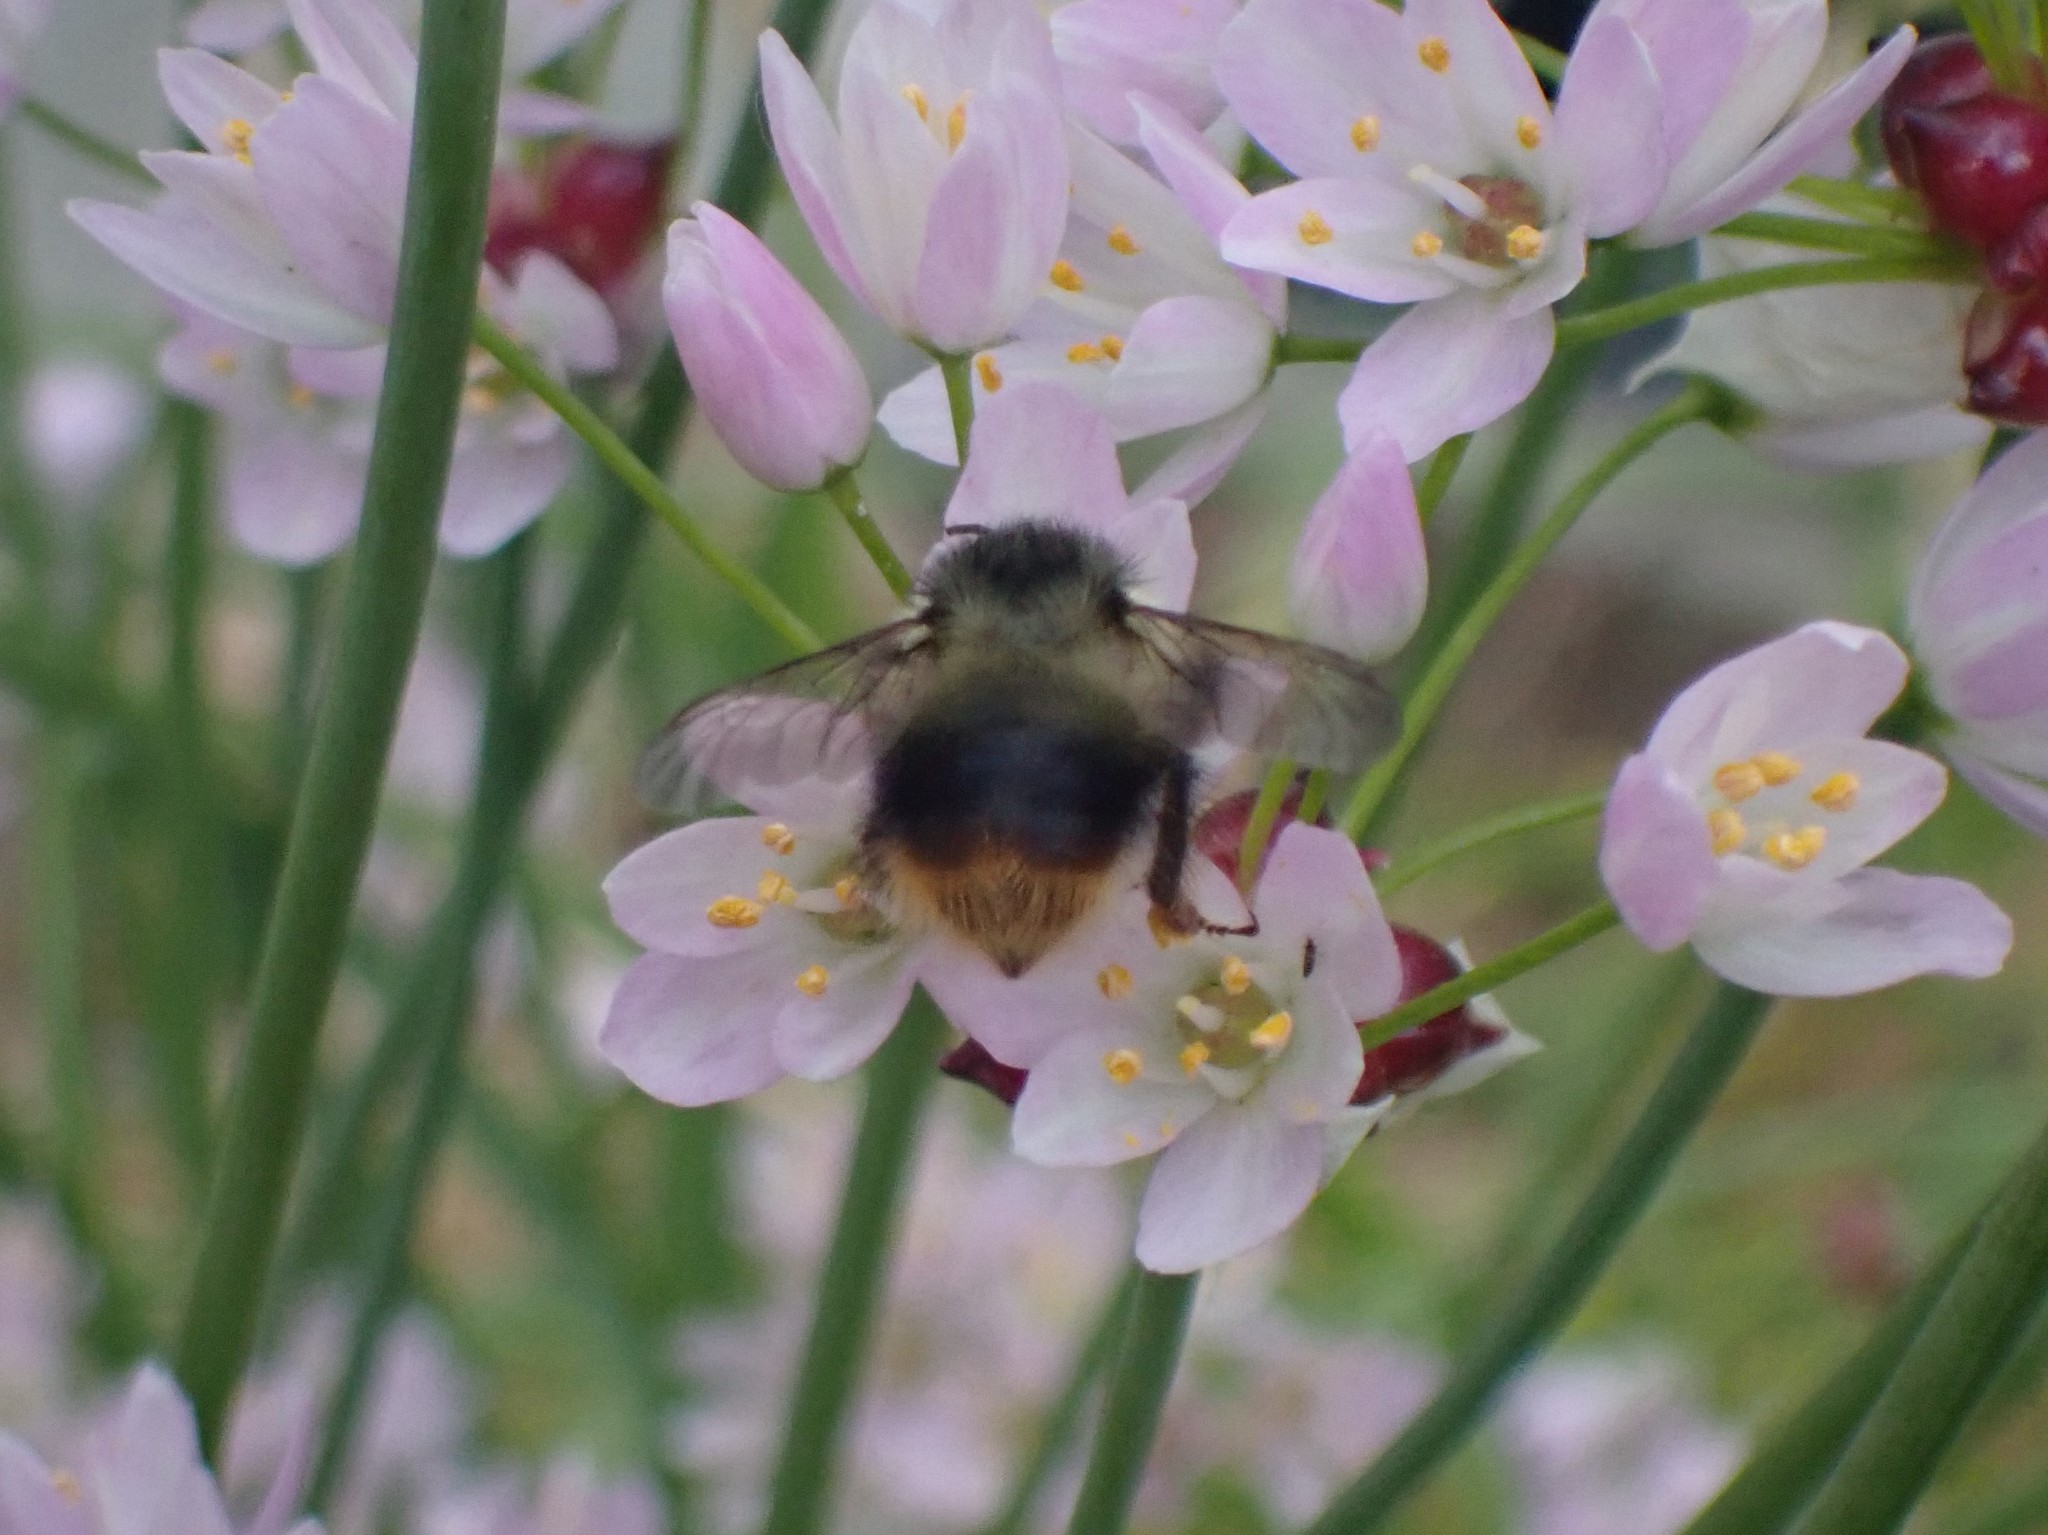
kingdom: Animalia
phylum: Arthropoda
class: Insecta
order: Hymenoptera
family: Apidae
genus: Bombus
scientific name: Bombus mixtus
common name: Fuzzy-horned bumble bee
